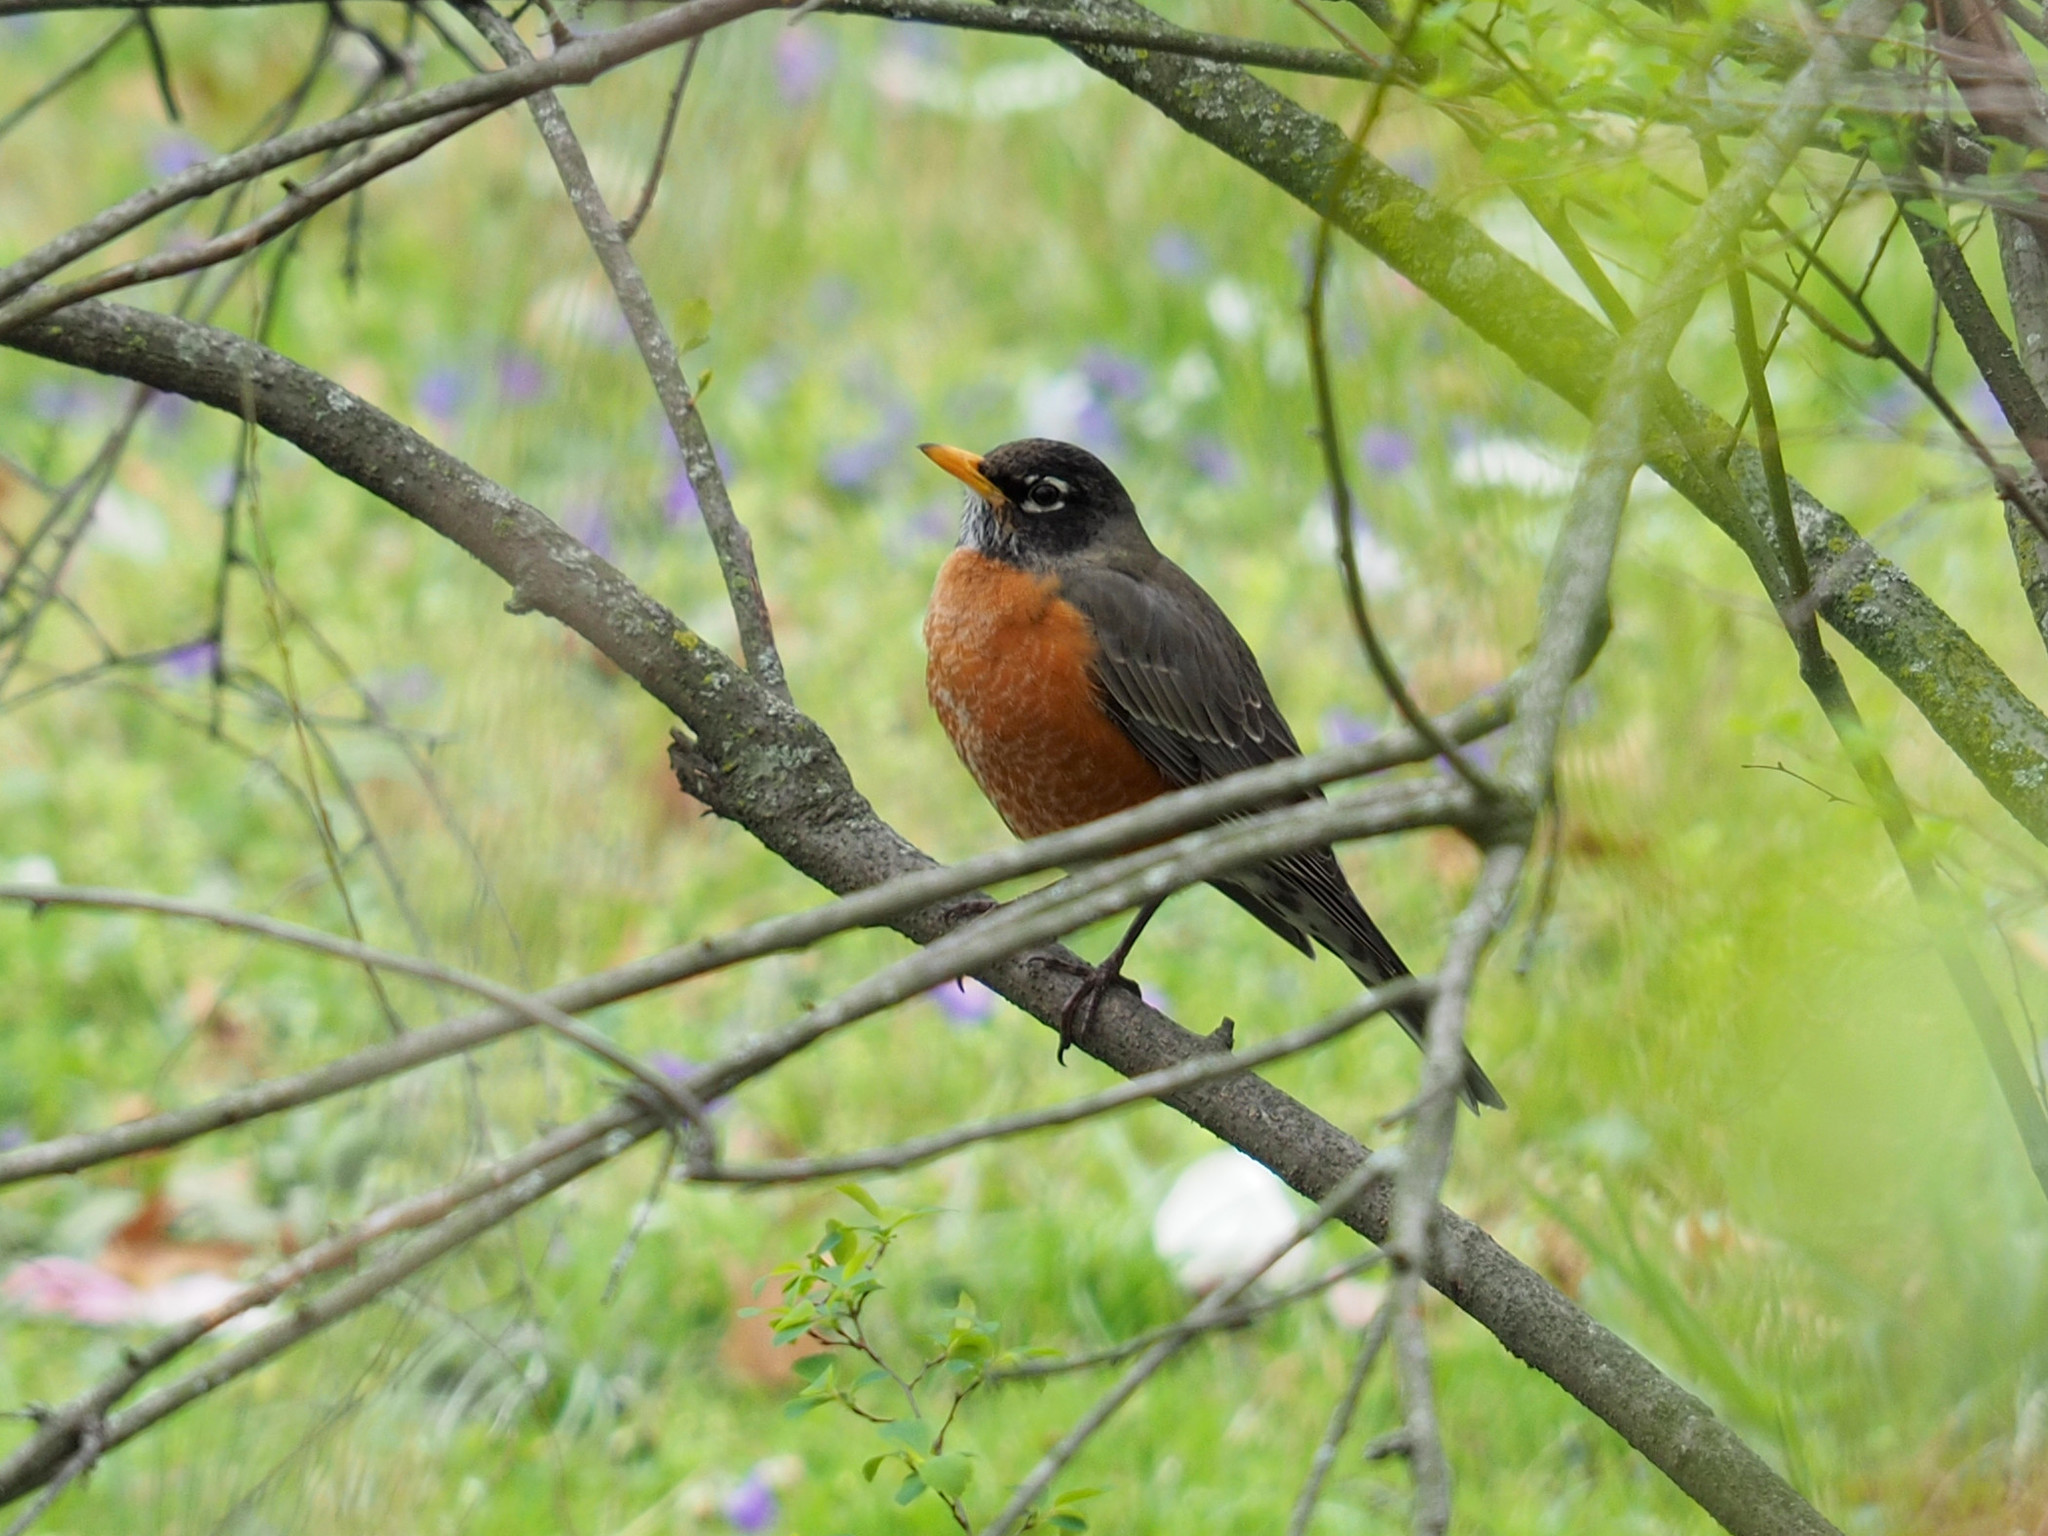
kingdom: Animalia
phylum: Chordata
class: Aves
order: Passeriformes
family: Turdidae
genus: Turdus
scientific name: Turdus migratorius
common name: American robin
